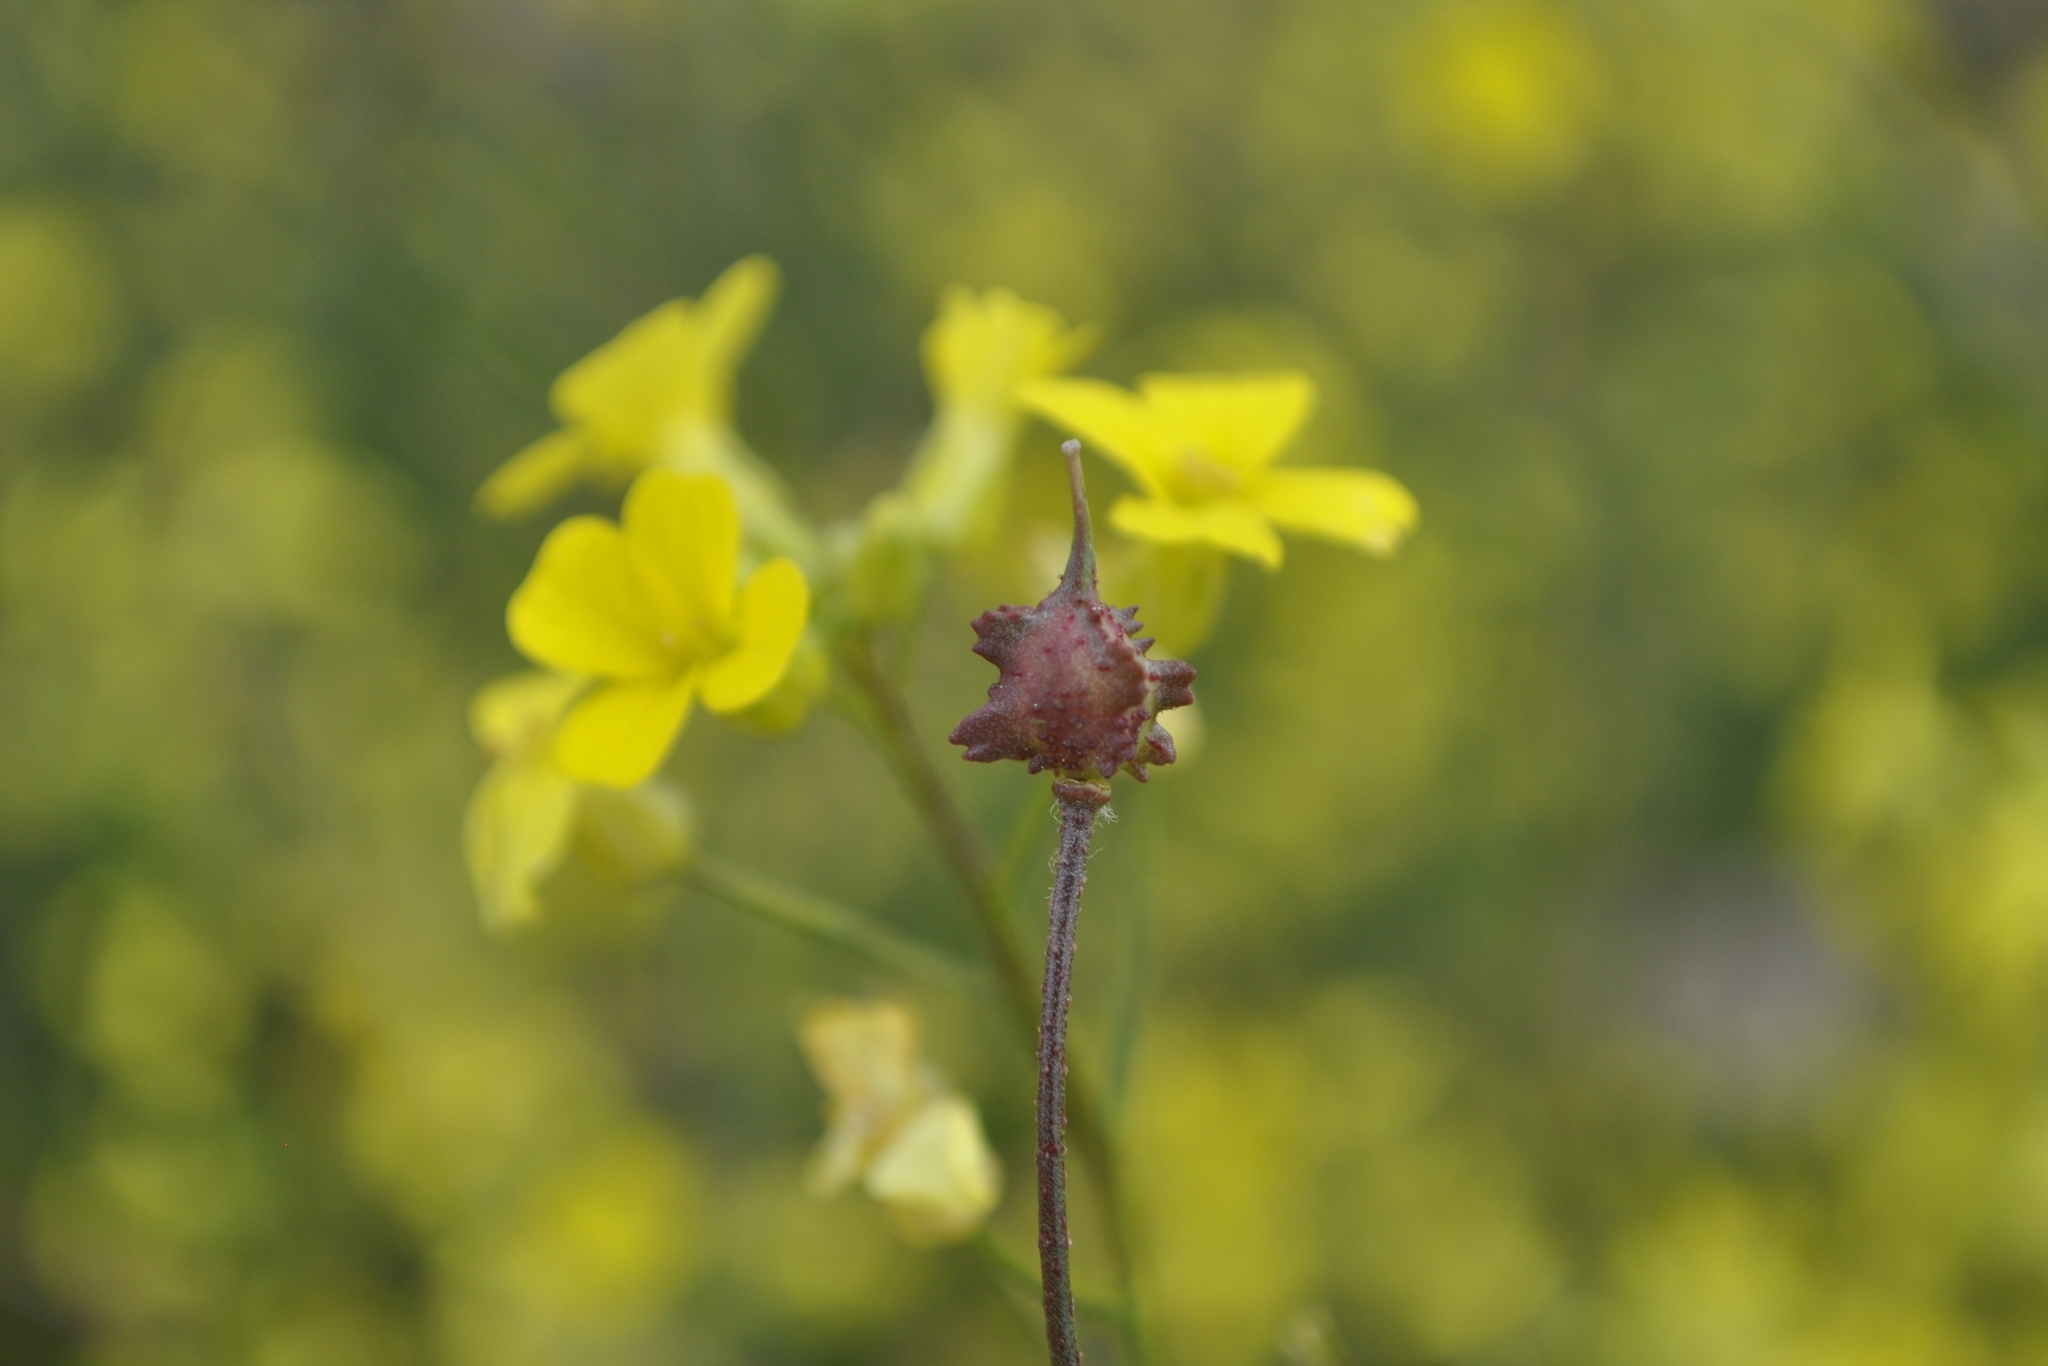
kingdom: Plantae
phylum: Tracheophyta
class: Magnoliopsida
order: Brassicales
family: Brassicaceae
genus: Bunias
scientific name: Bunias erucago
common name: Southern warty-cabbage
